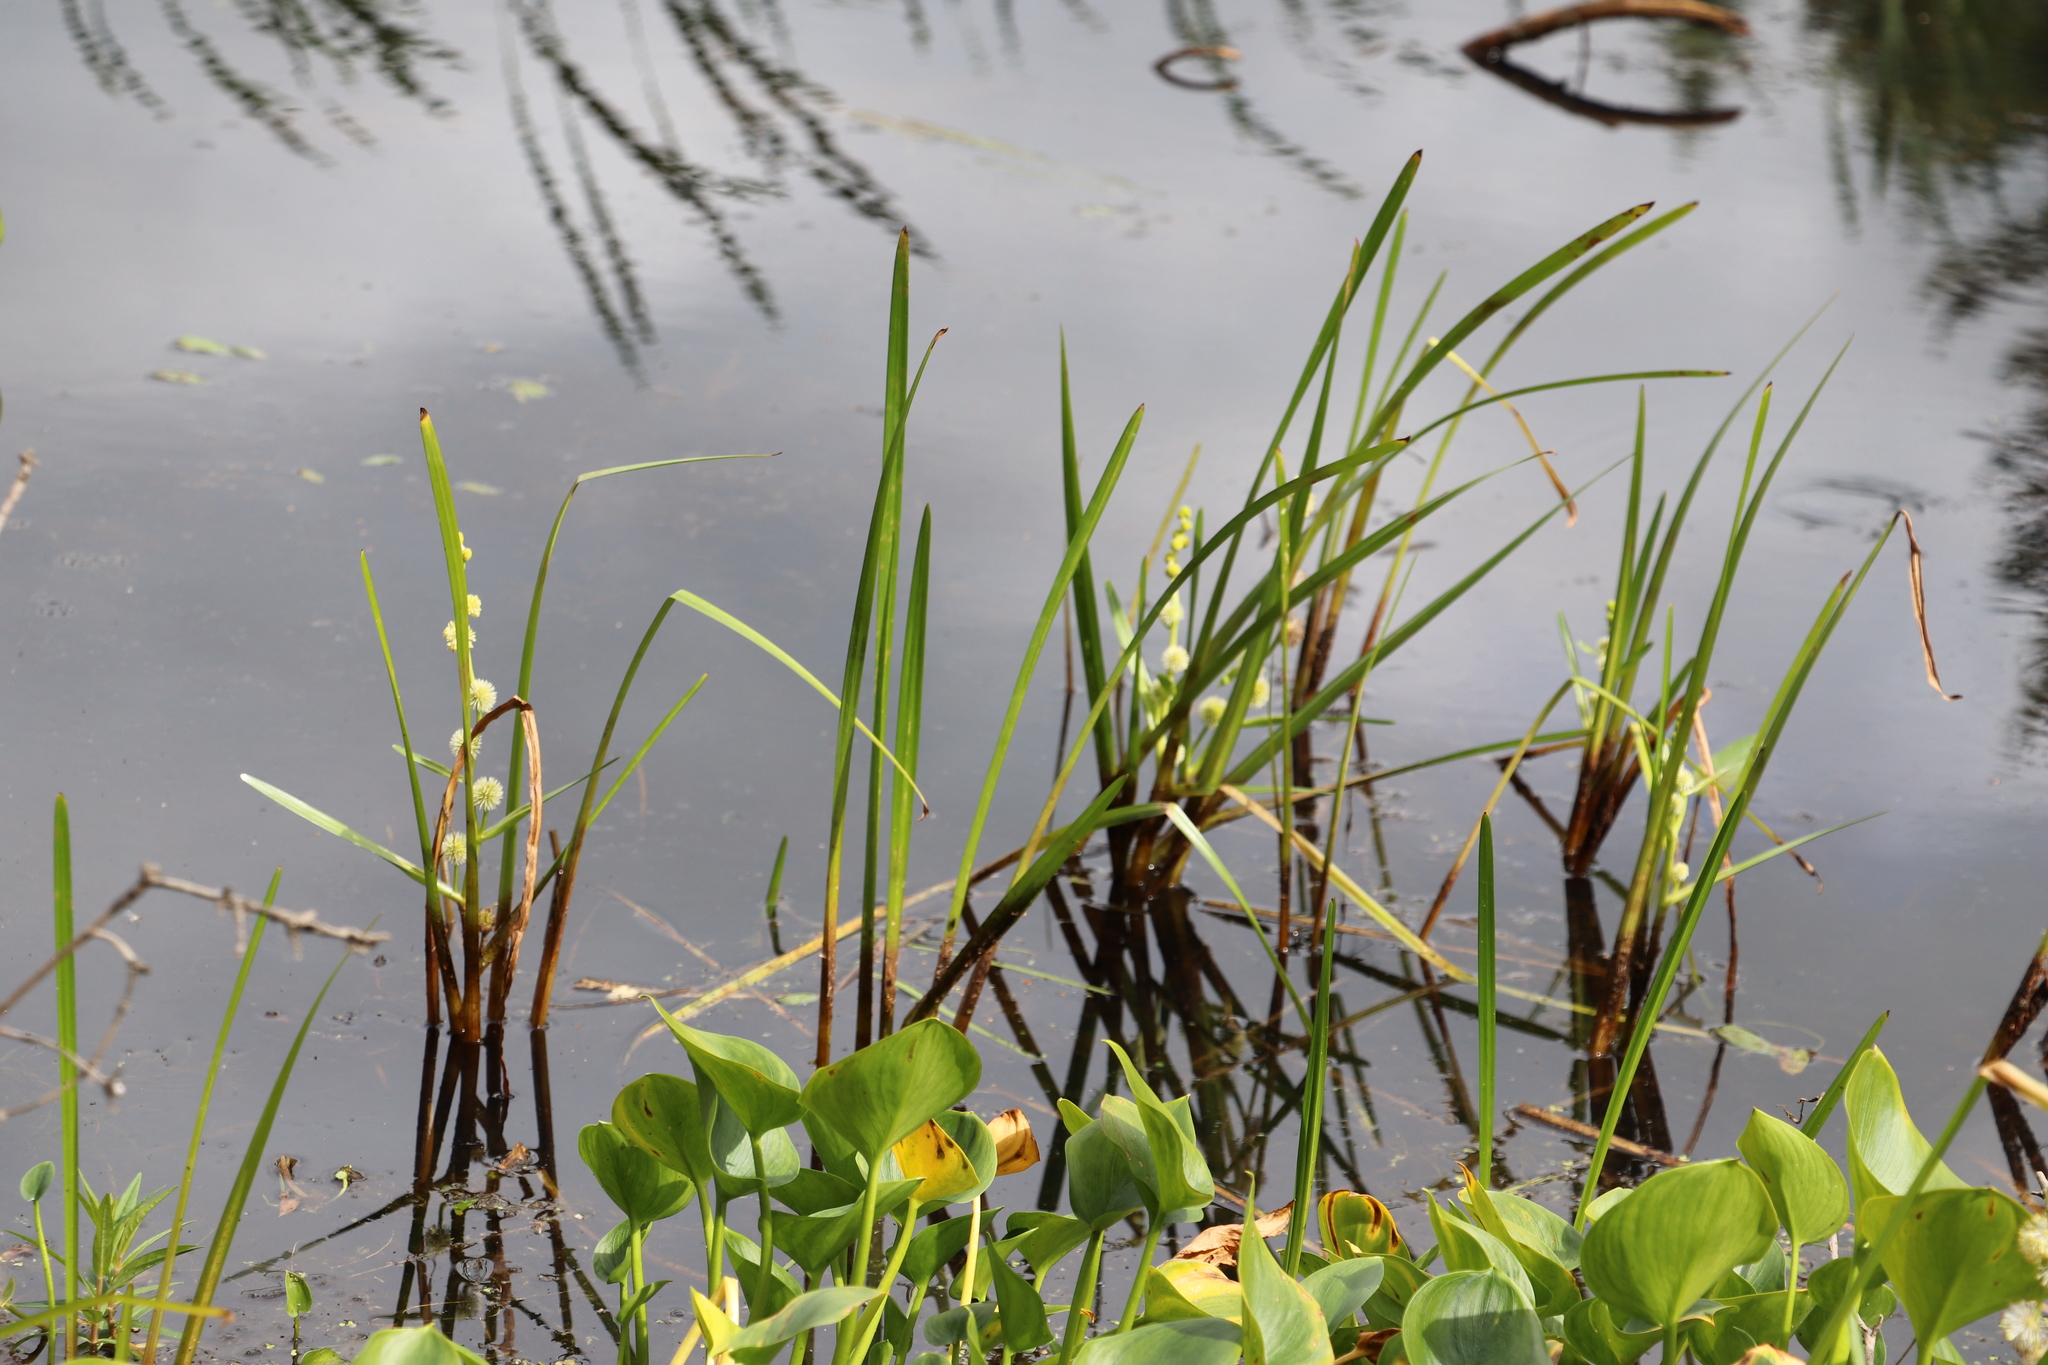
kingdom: Plantae
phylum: Tracheophyta
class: Liliopsida
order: Poales
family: Typhaceae
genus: Sparganium
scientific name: Sparganium emersum
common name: Unbranched bur-reed
